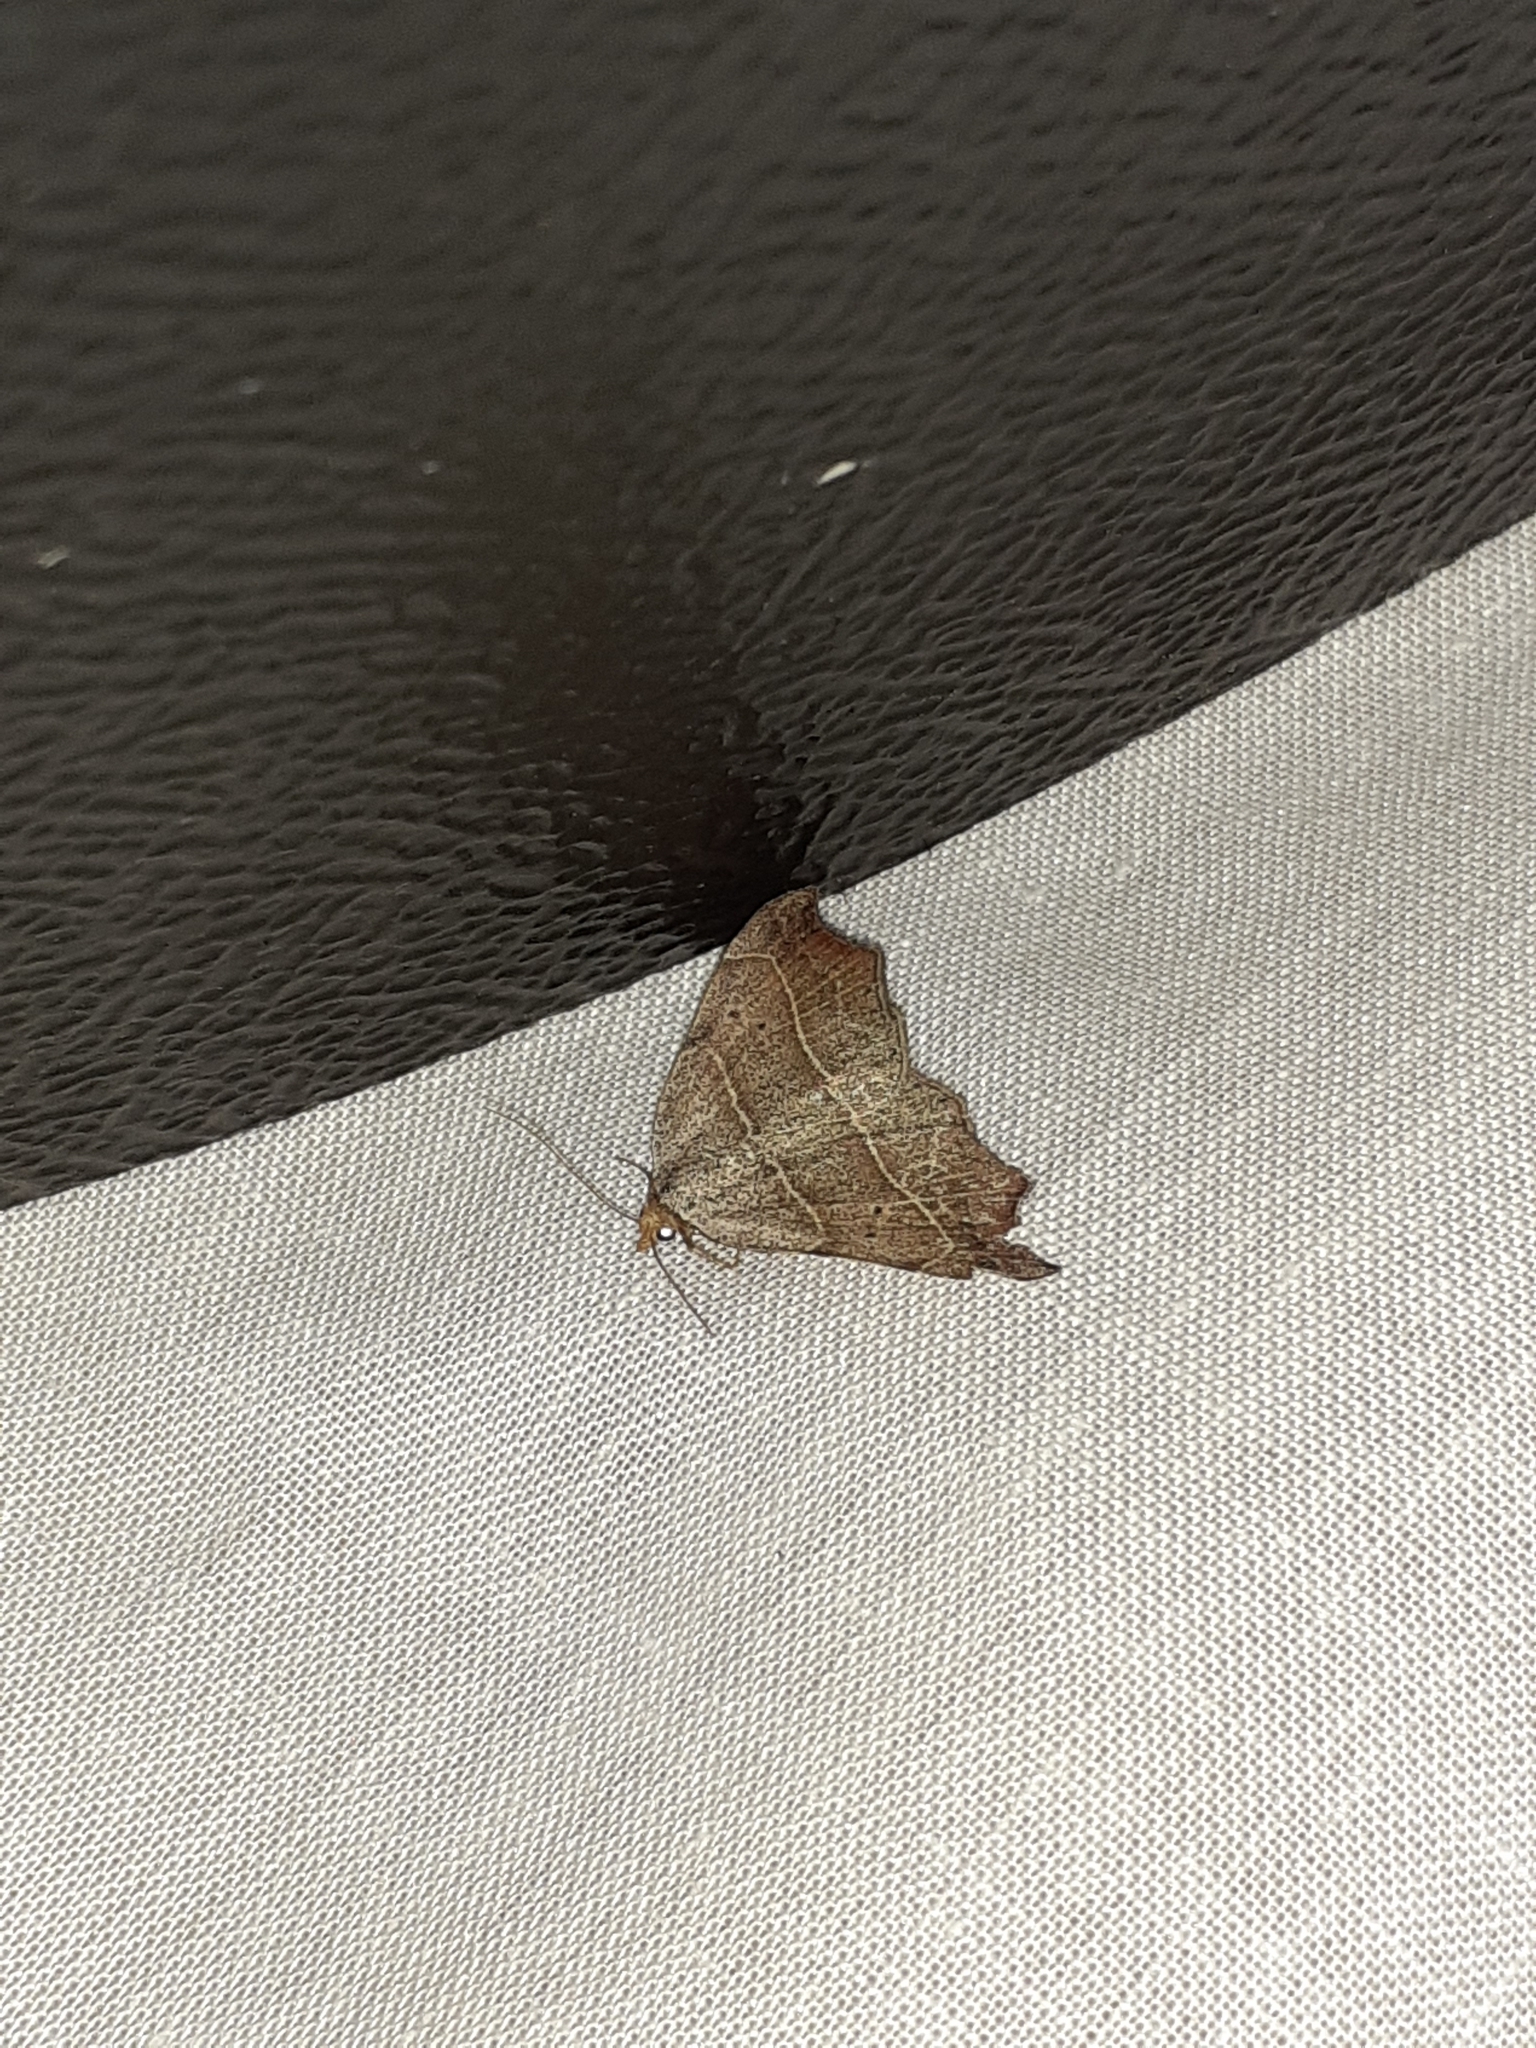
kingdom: Animalia
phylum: Arthropoda
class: Insecta
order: Lepidoptera
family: Erebidae
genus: Laspeyria
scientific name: Laspeyria flexula
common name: Beautiful hook-tip
